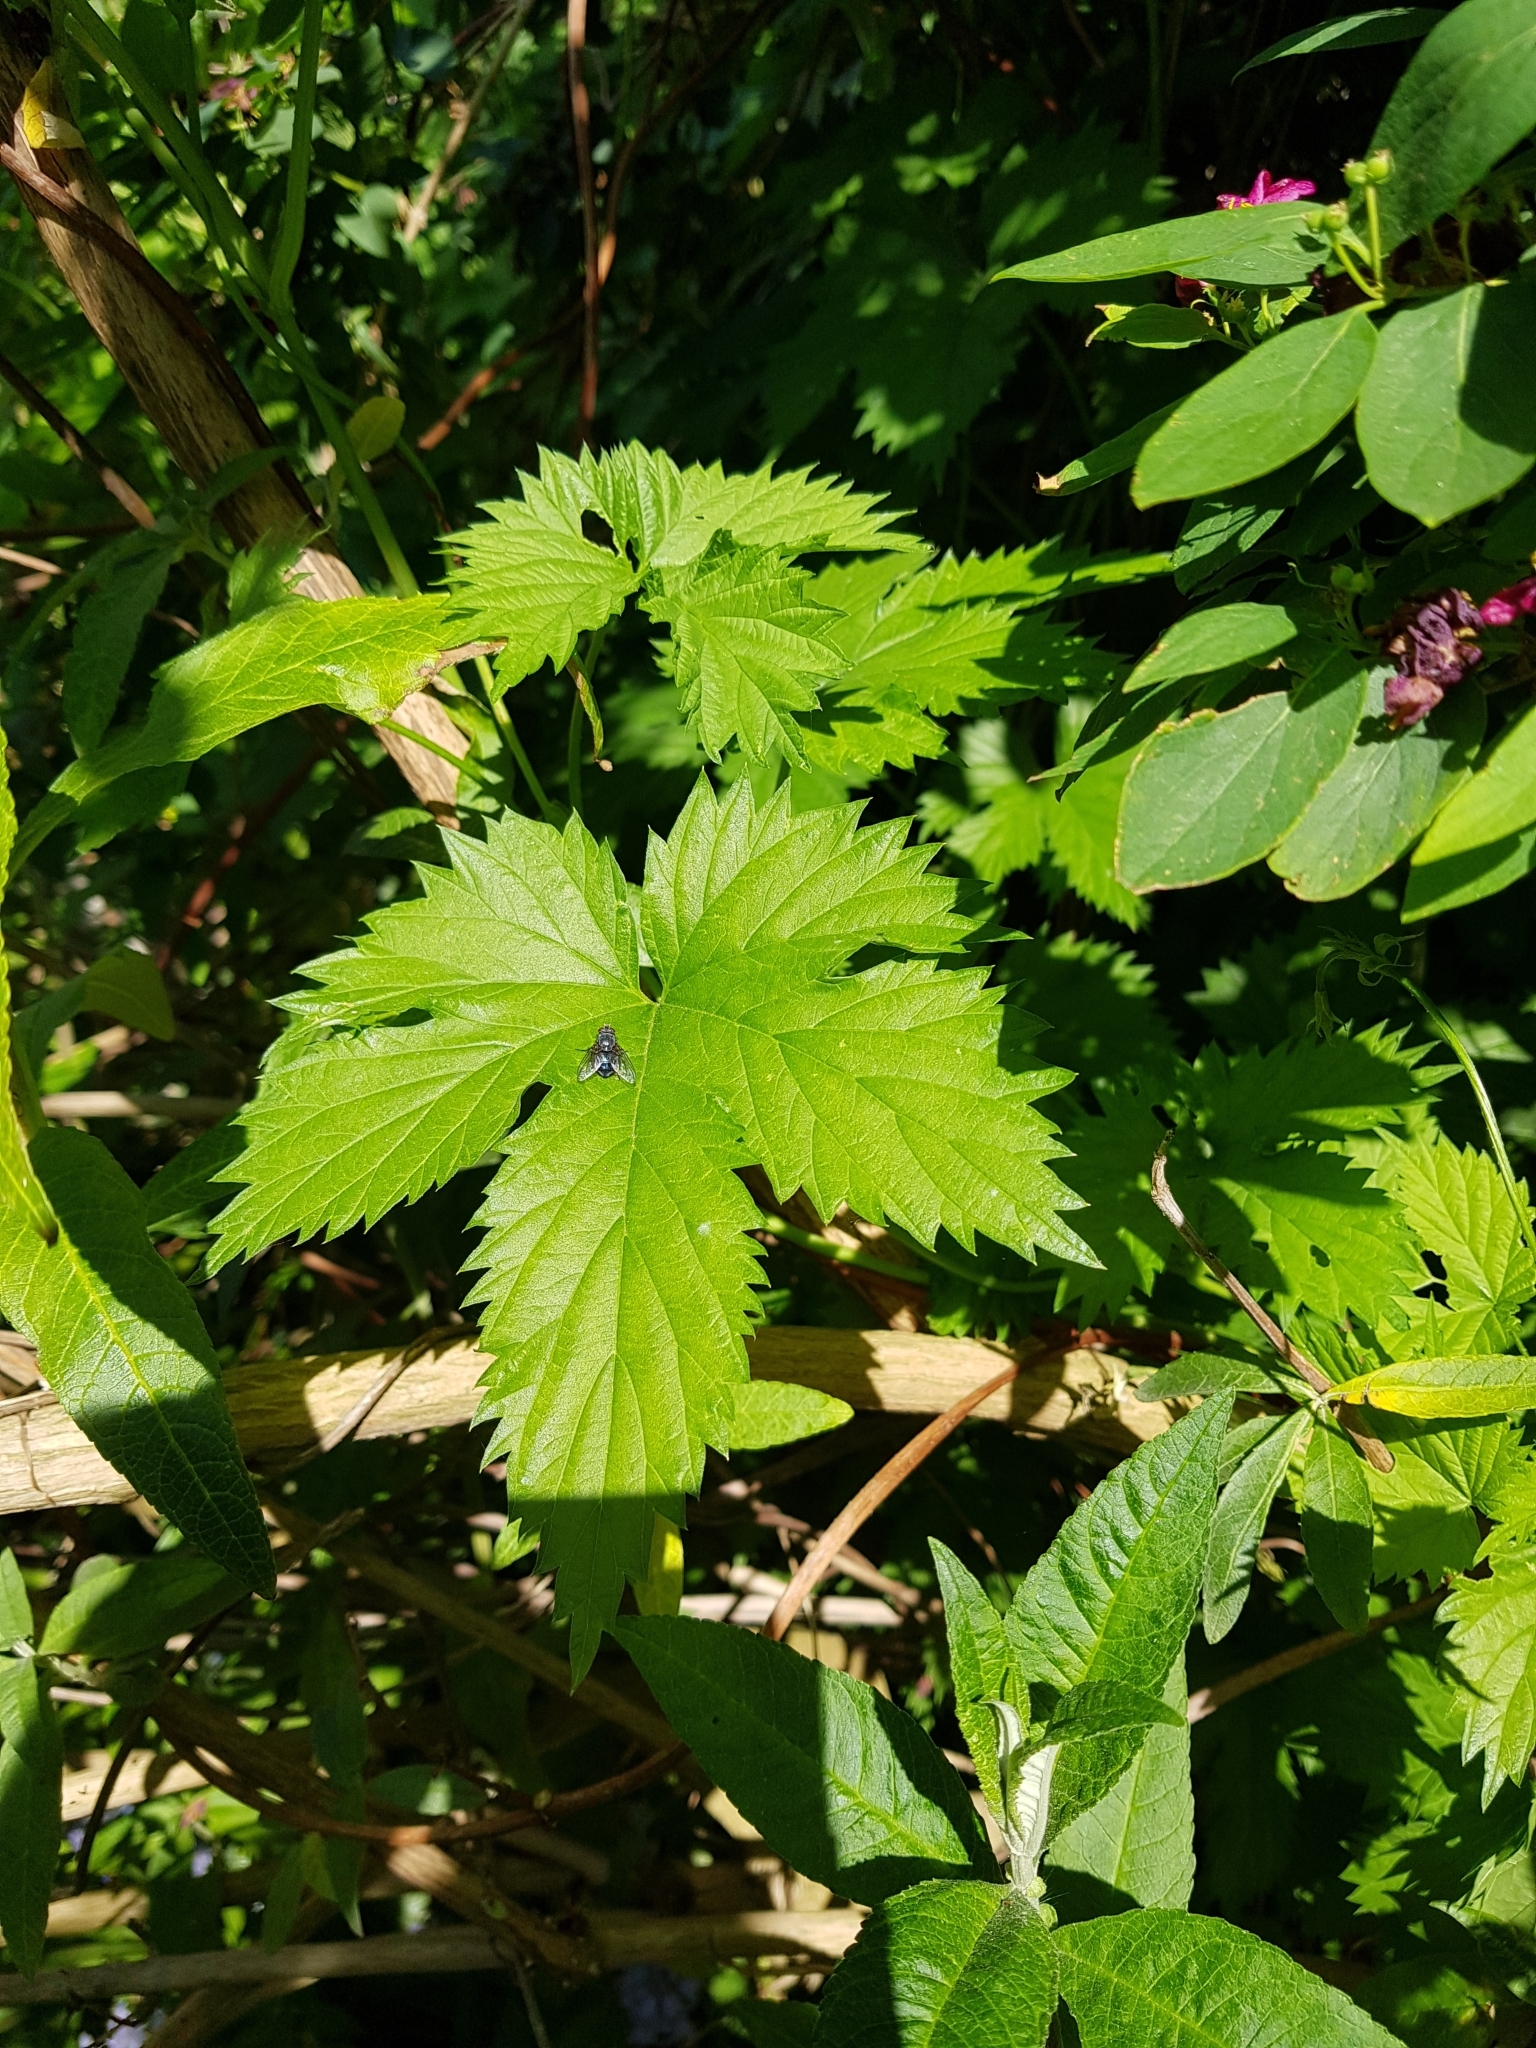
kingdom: Plantae
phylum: Tracheophyta
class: Magnoliopsida
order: Rosales
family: Cannabaceae
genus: Humulus
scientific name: Humulus lupulus
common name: Hop
